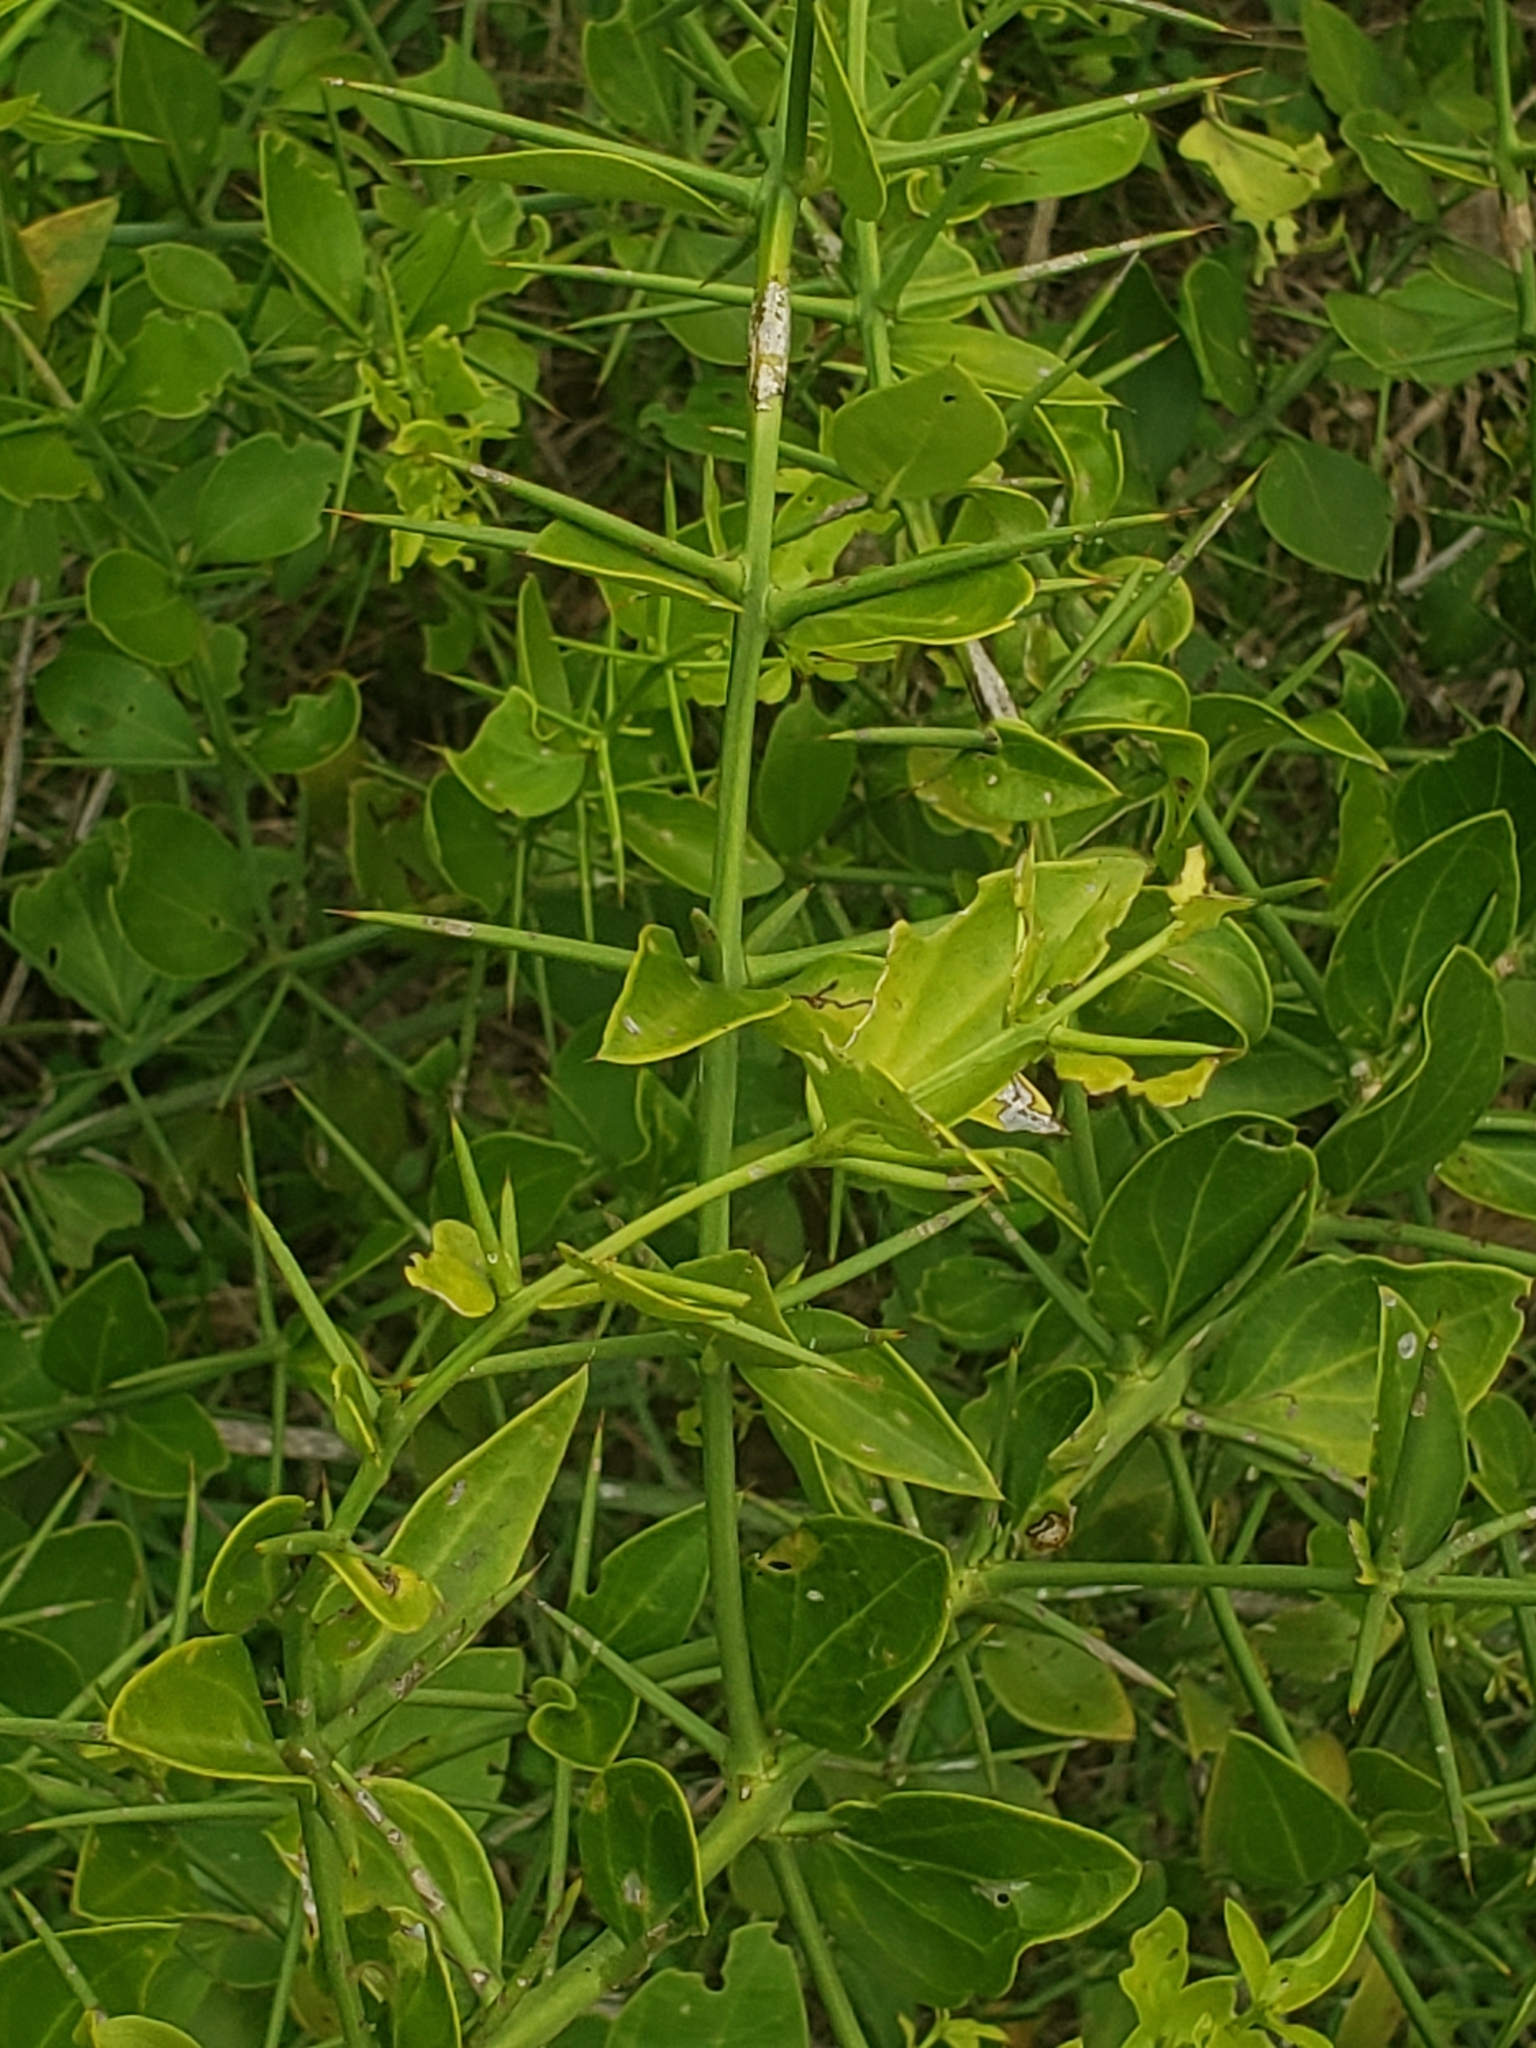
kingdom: Plantae
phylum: Tracheophyta
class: Magnoliopsida
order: Brassicales
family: Salvadoraceae
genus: Azima
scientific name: Azima tetracantha
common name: Needle bush
